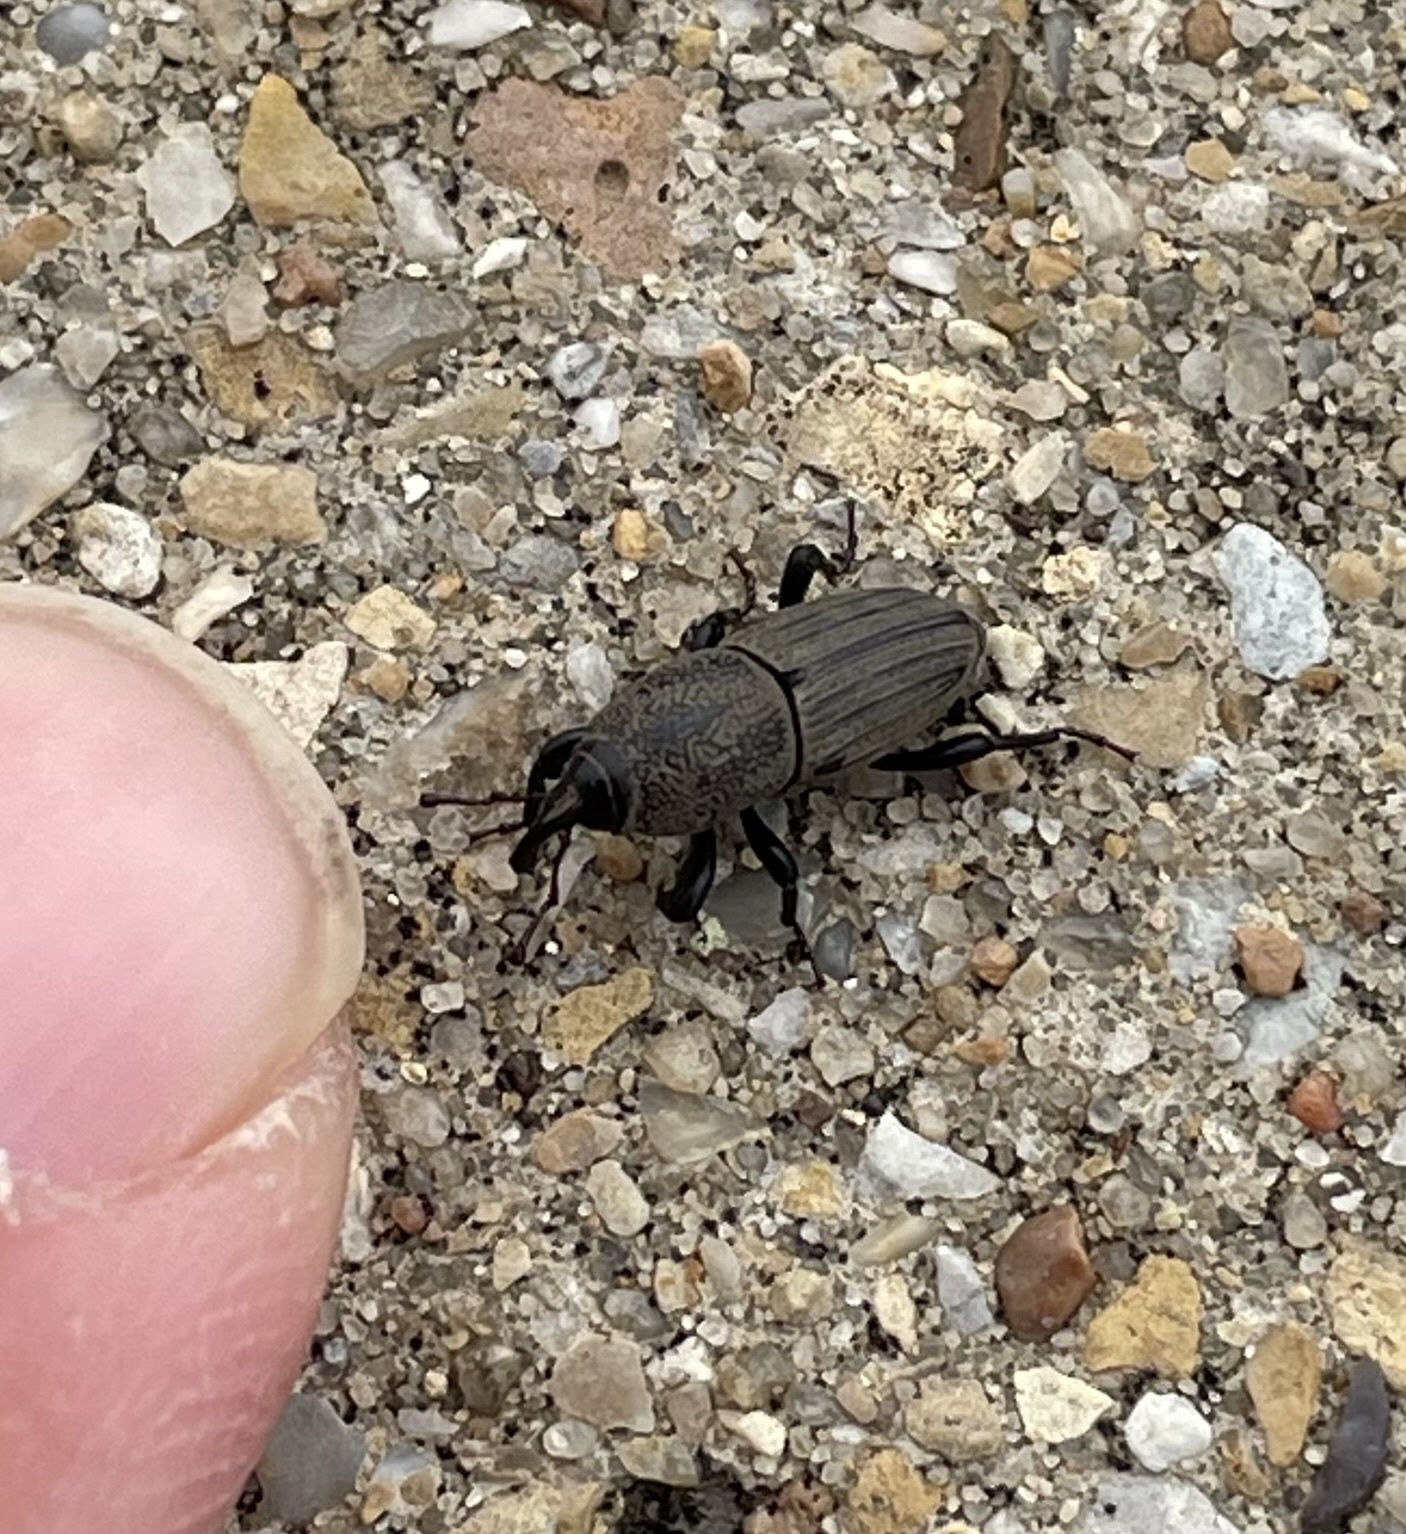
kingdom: Animalia
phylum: Arthropoda
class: Insecta
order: Coleoptera
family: Dryophthoridae
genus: Sphenophorus
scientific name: Sphenophorus coesifrons
